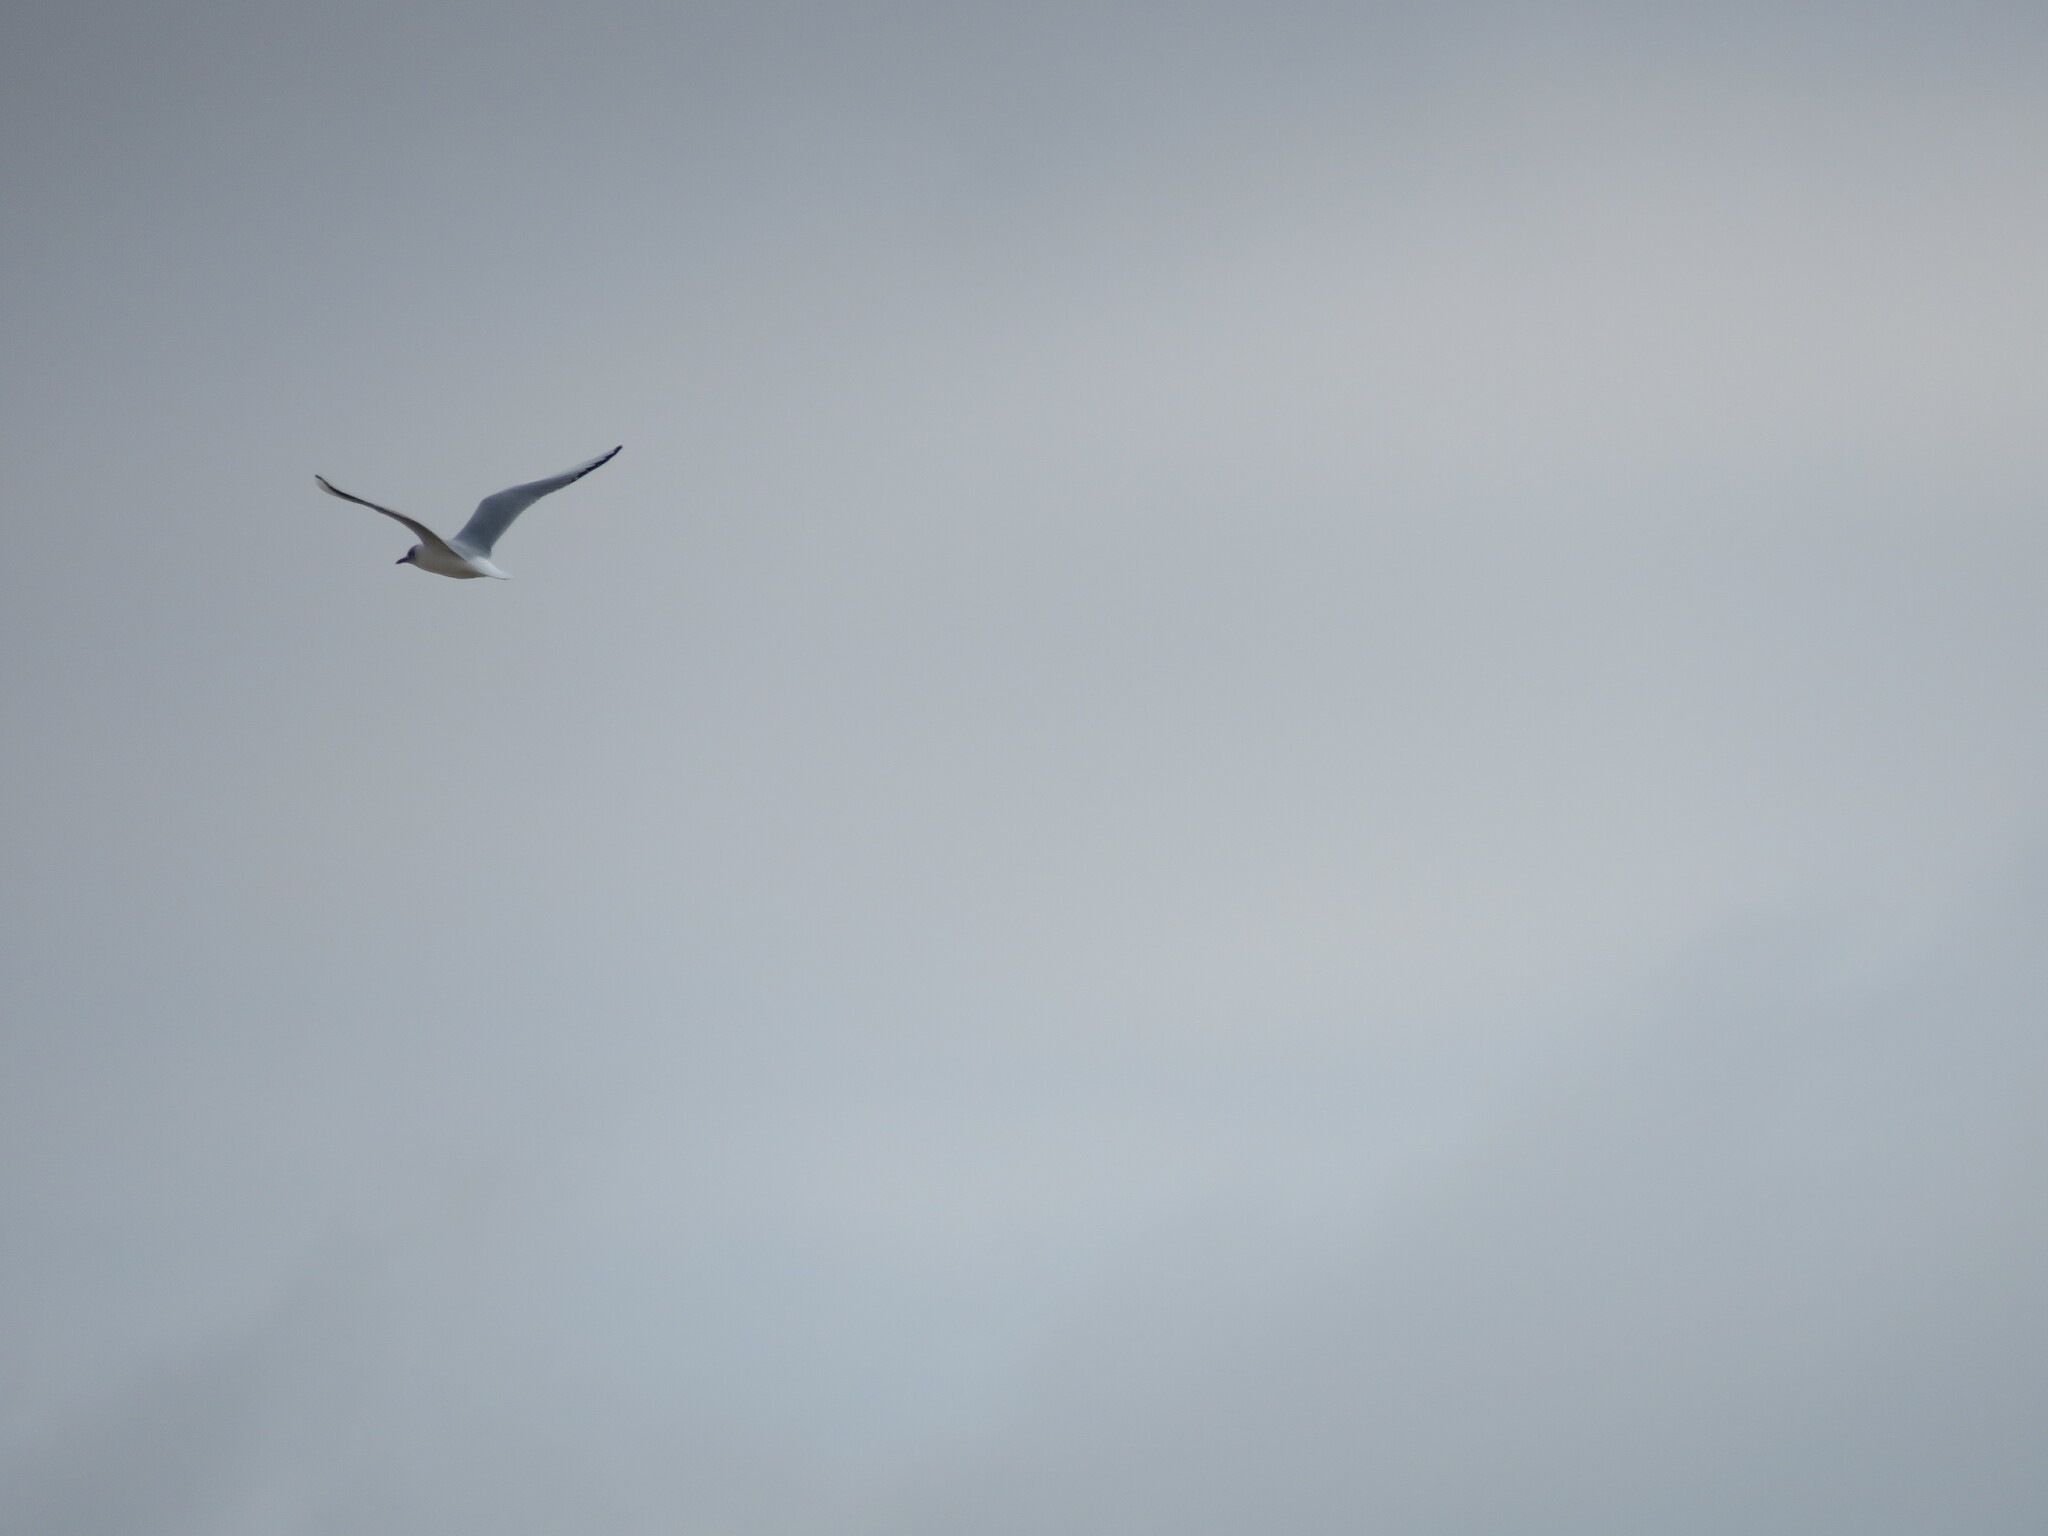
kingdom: Animalia
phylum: Chordata
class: Aves
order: Charadriiformes
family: Laridae
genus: Chroicocephalus
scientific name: Chroicocephalus ridibundus
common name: Black-headed gull
